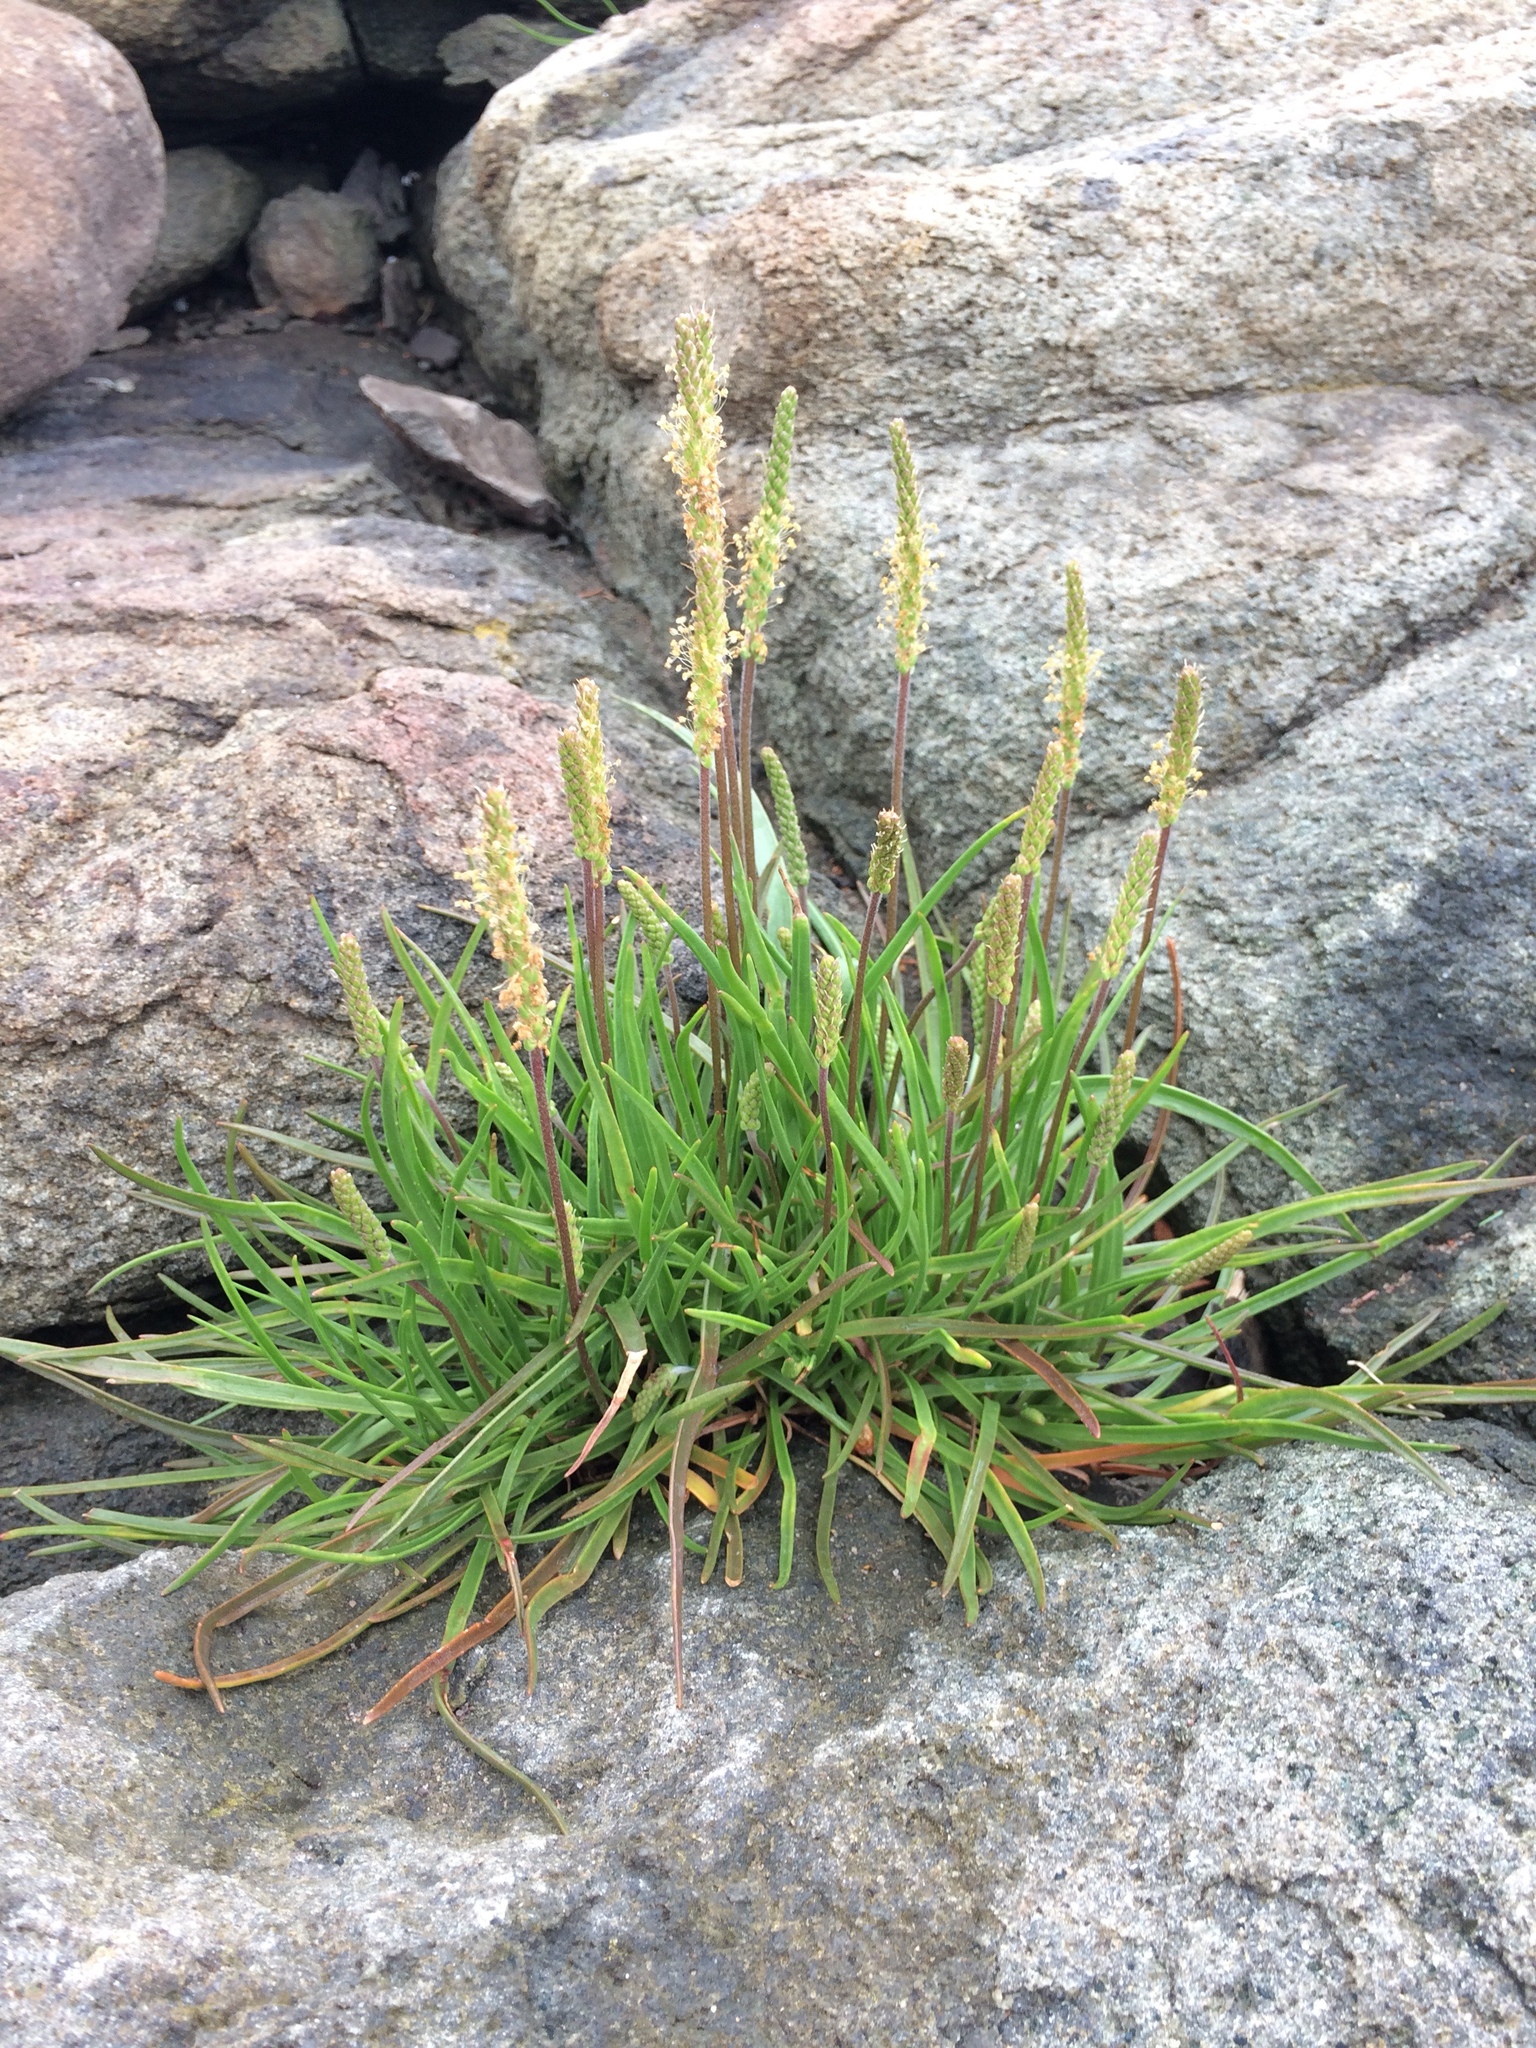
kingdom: Plantae
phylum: Tracheophyta
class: Magnoliopsida
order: Lamiales
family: Plantaginaceae
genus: Plantago
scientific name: Plantago maritima
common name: Sea plantain
